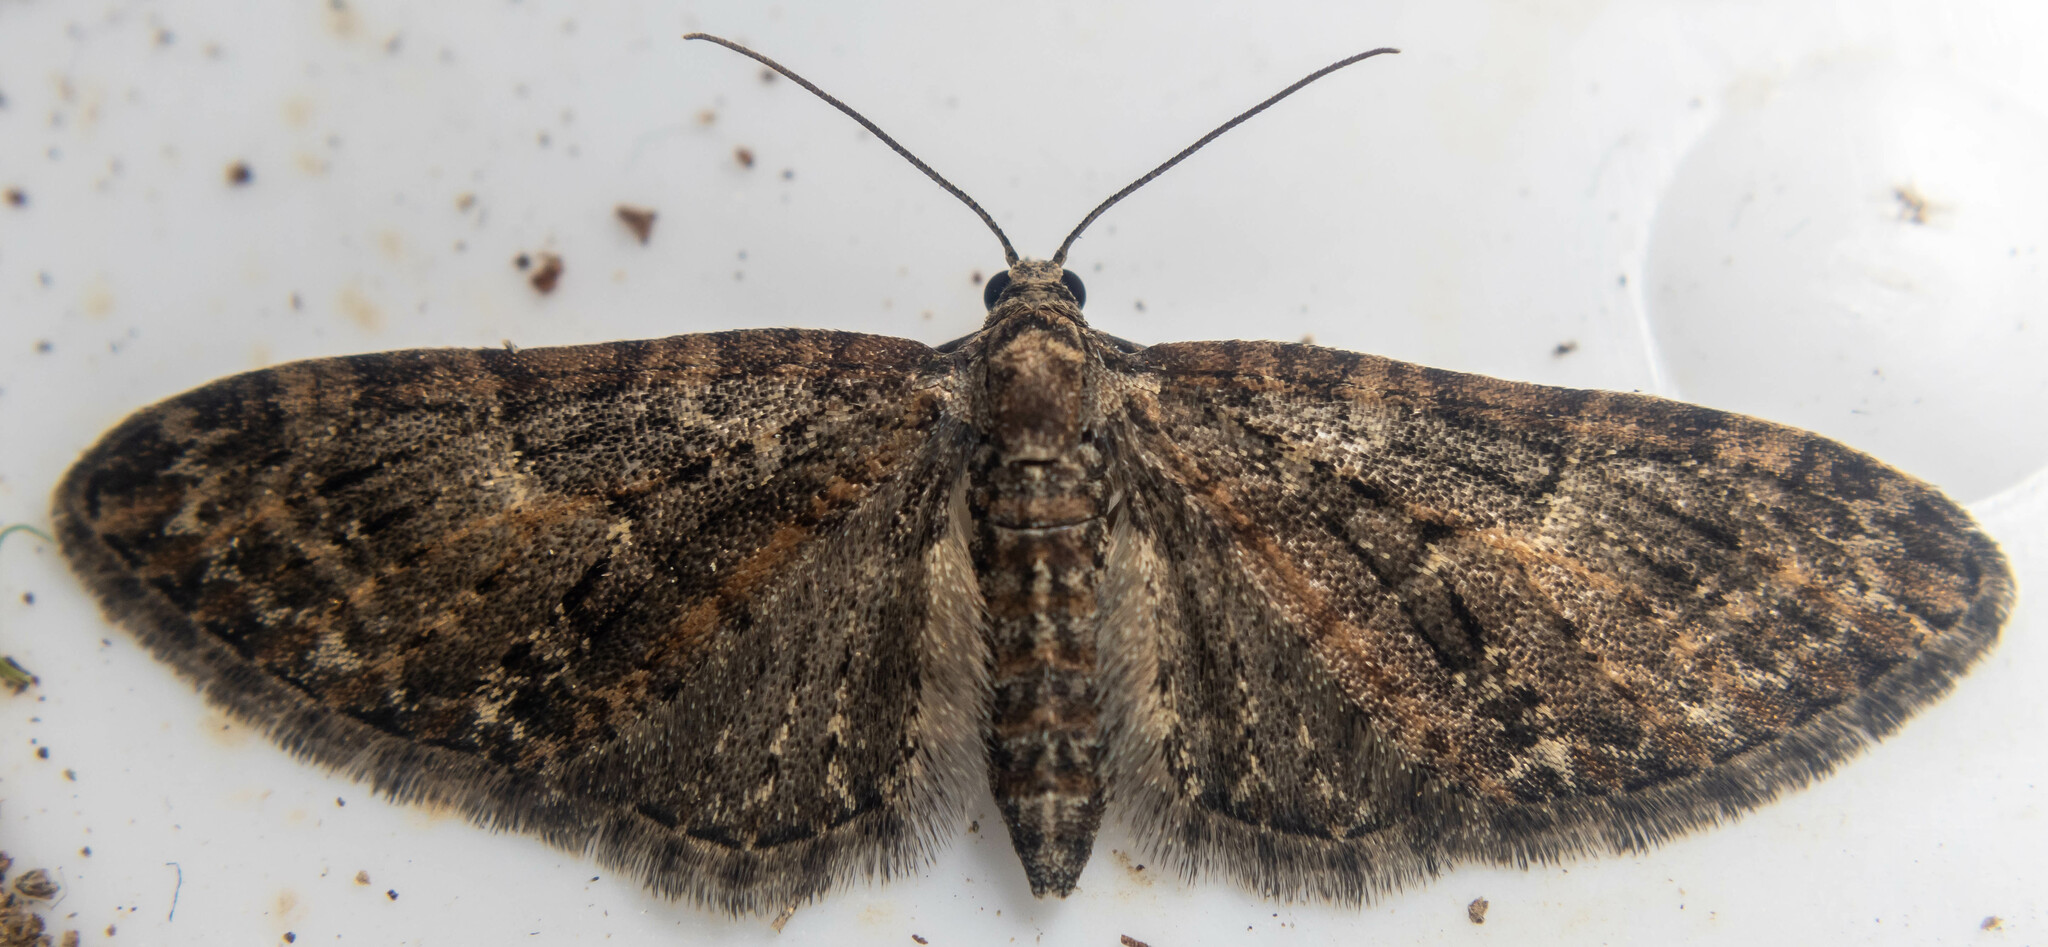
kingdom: Animalia
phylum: Arthropoda
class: Insecta
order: Lepidoptera
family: Geometridae
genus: Eupithecia
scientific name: Eupithecia abbreviata
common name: Brindled pug
